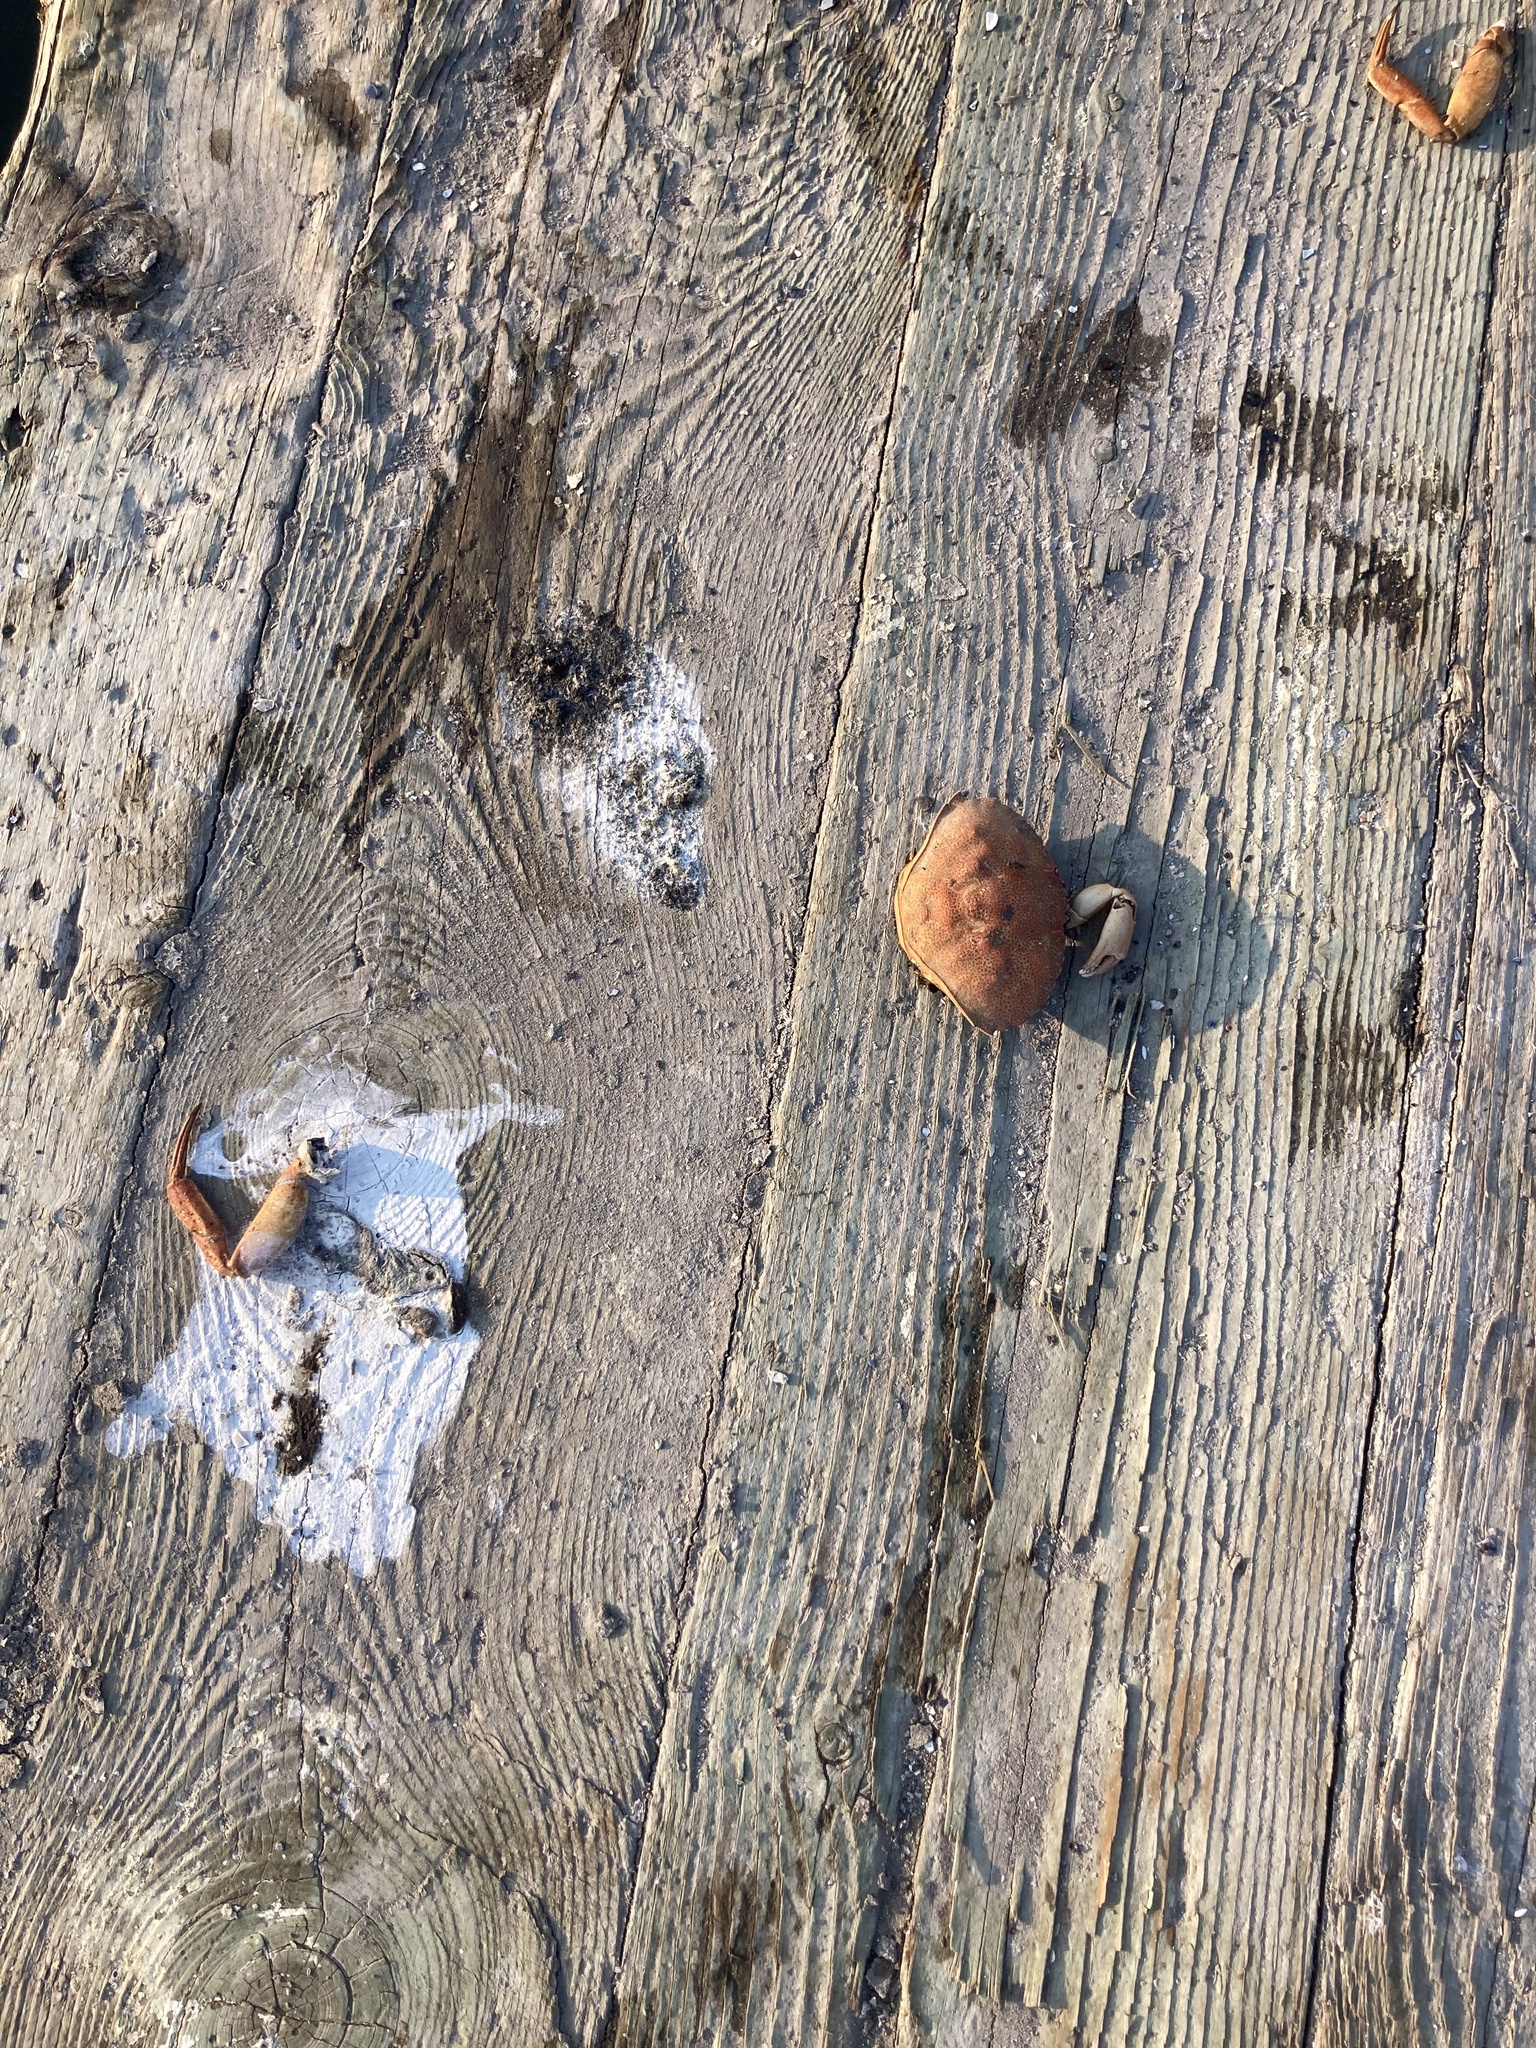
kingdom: Animalia
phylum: Arthropoda
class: Malacostraca
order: Decapoda
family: Cancridae
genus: Cancer
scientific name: Cancer irroratus
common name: Atlantic rock crab
